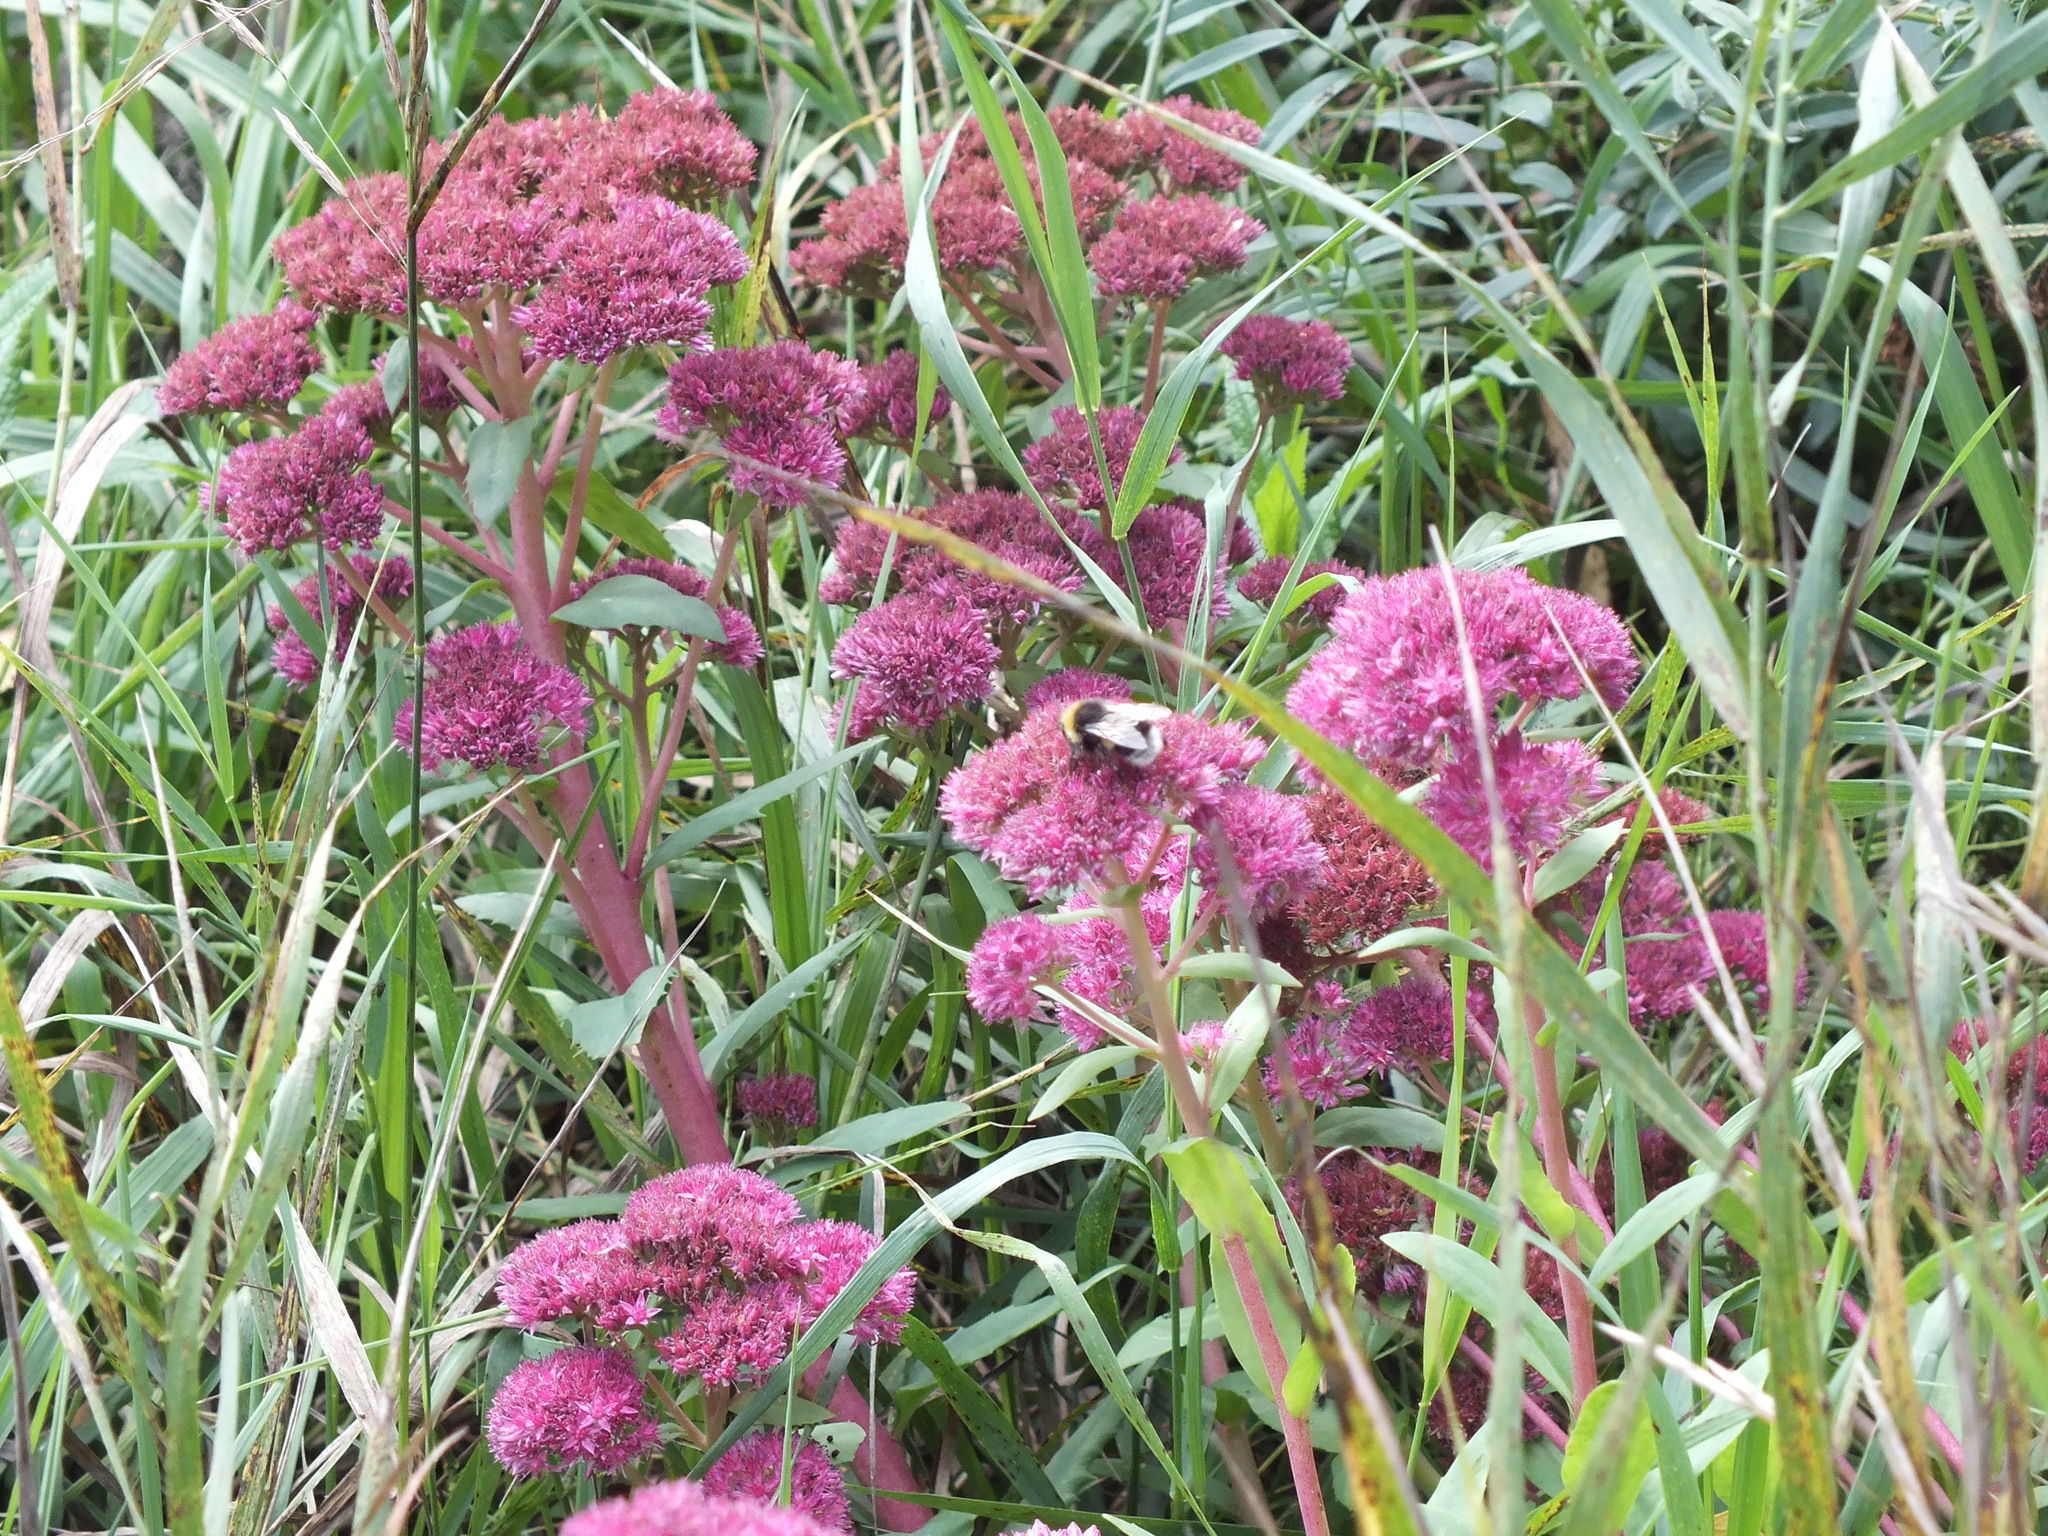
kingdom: Plantae
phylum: Tracheophyta
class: Magnoliopsida
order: Saxifragales
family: Crassulaceae
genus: Hylotelephium
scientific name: Hylotelephium telephium
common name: Live-forever
